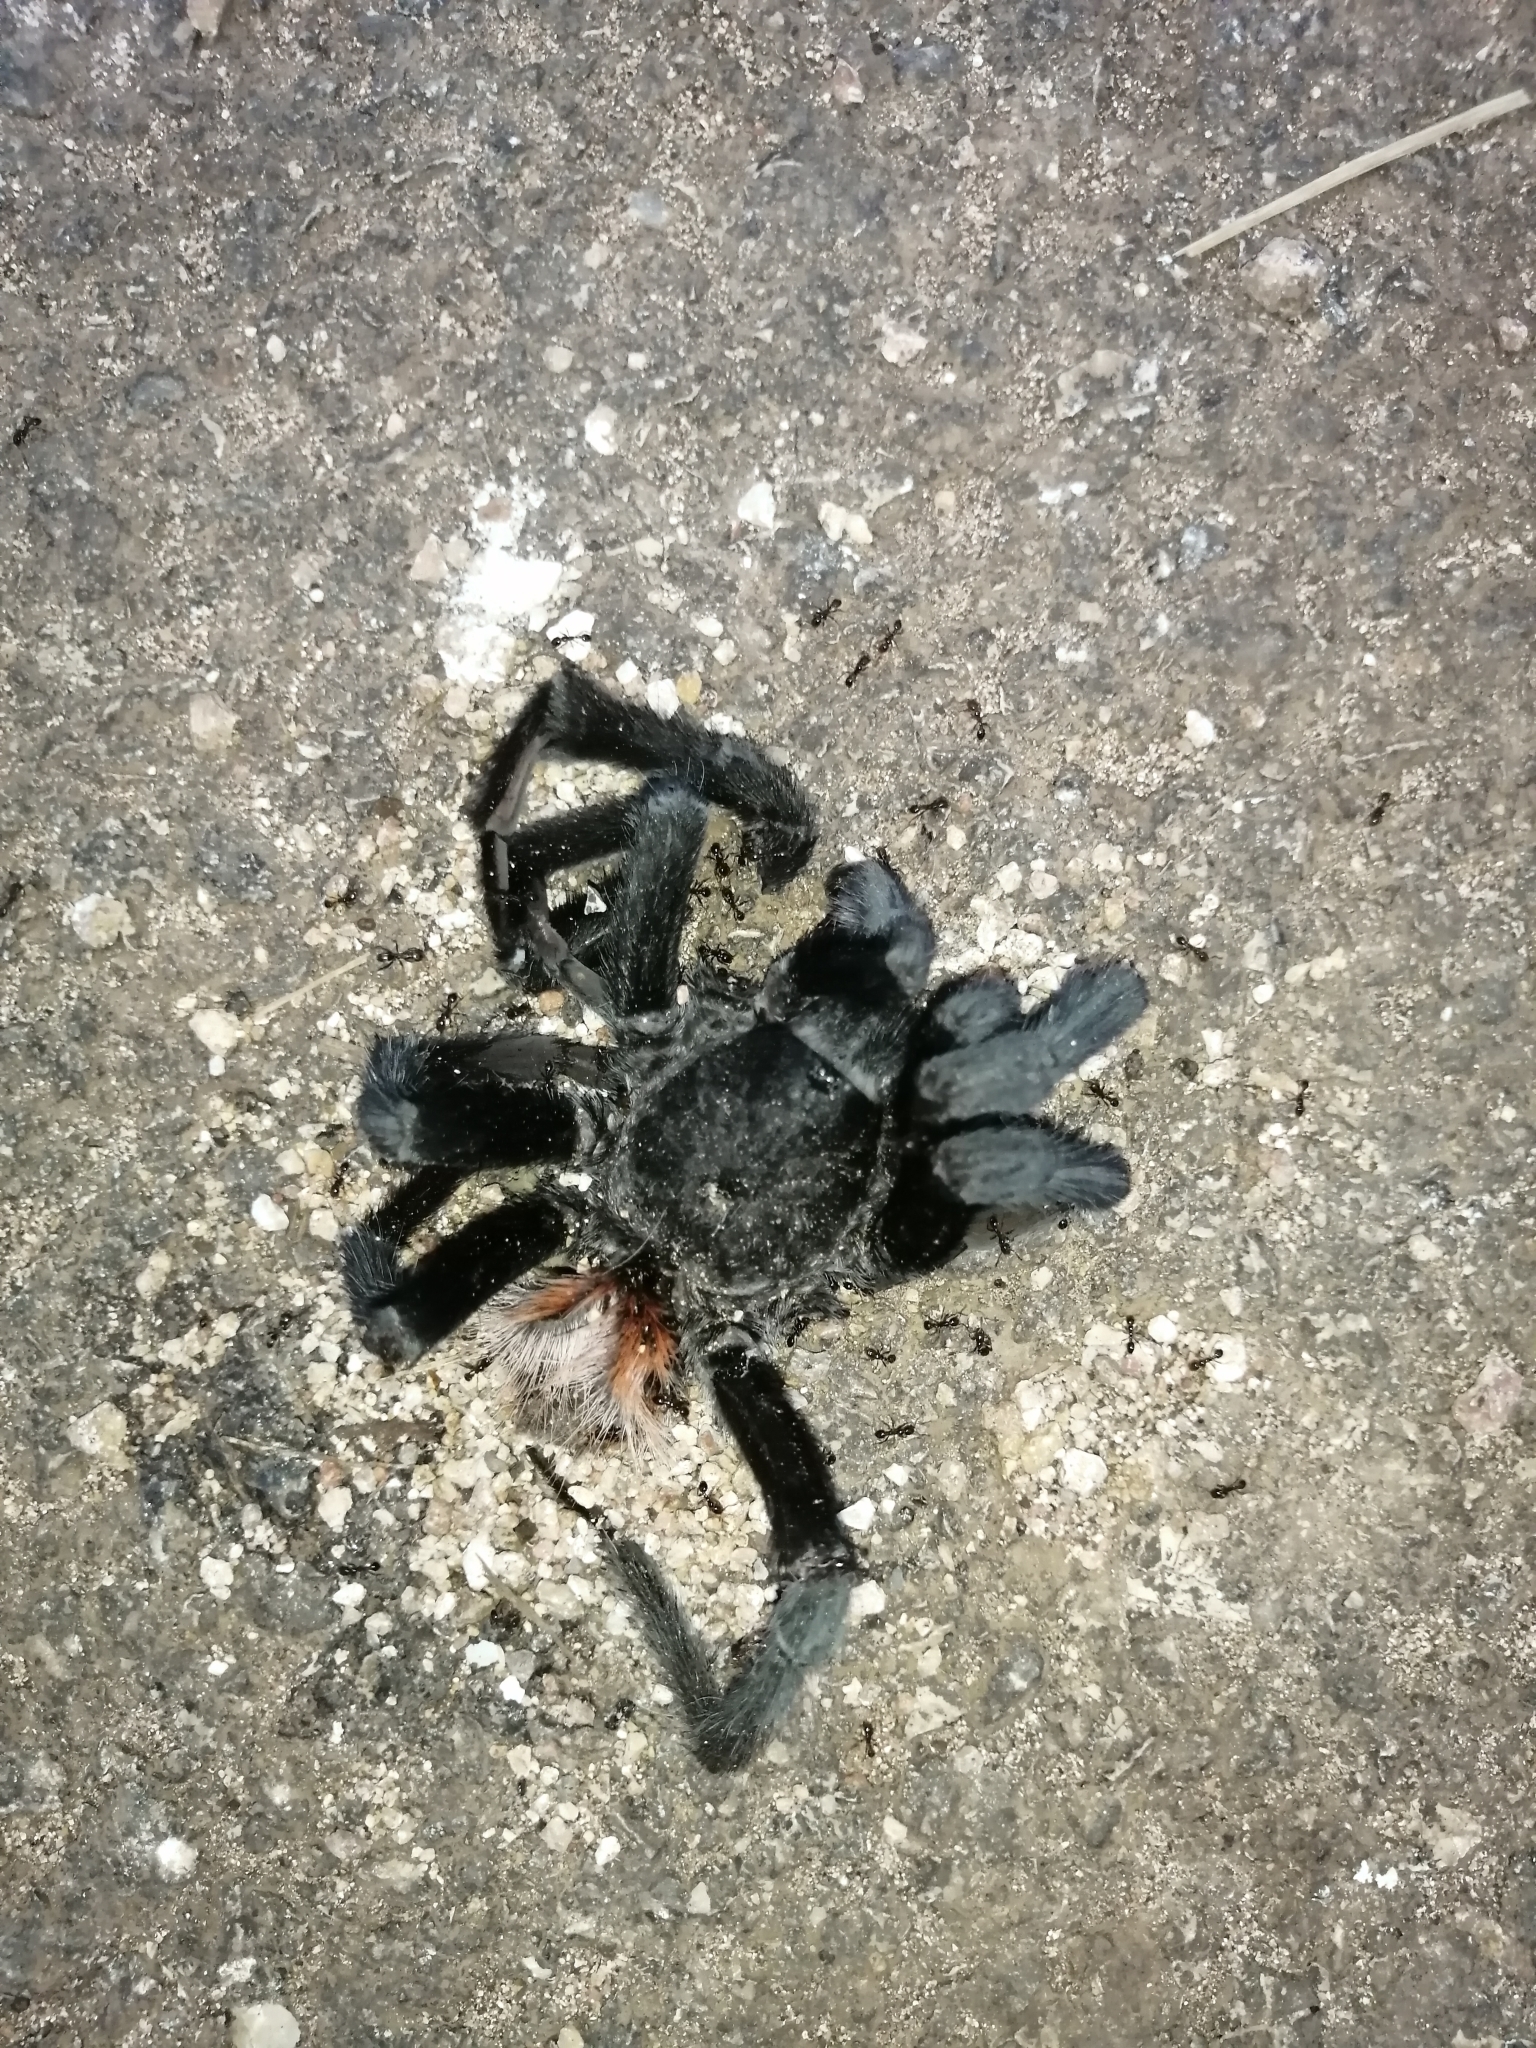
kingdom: Animalia
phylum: Arthropoda
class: Arachnida
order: Araneae
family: Theraphosidae
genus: Tliltocatl
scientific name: Tliltocatl epicureanus
